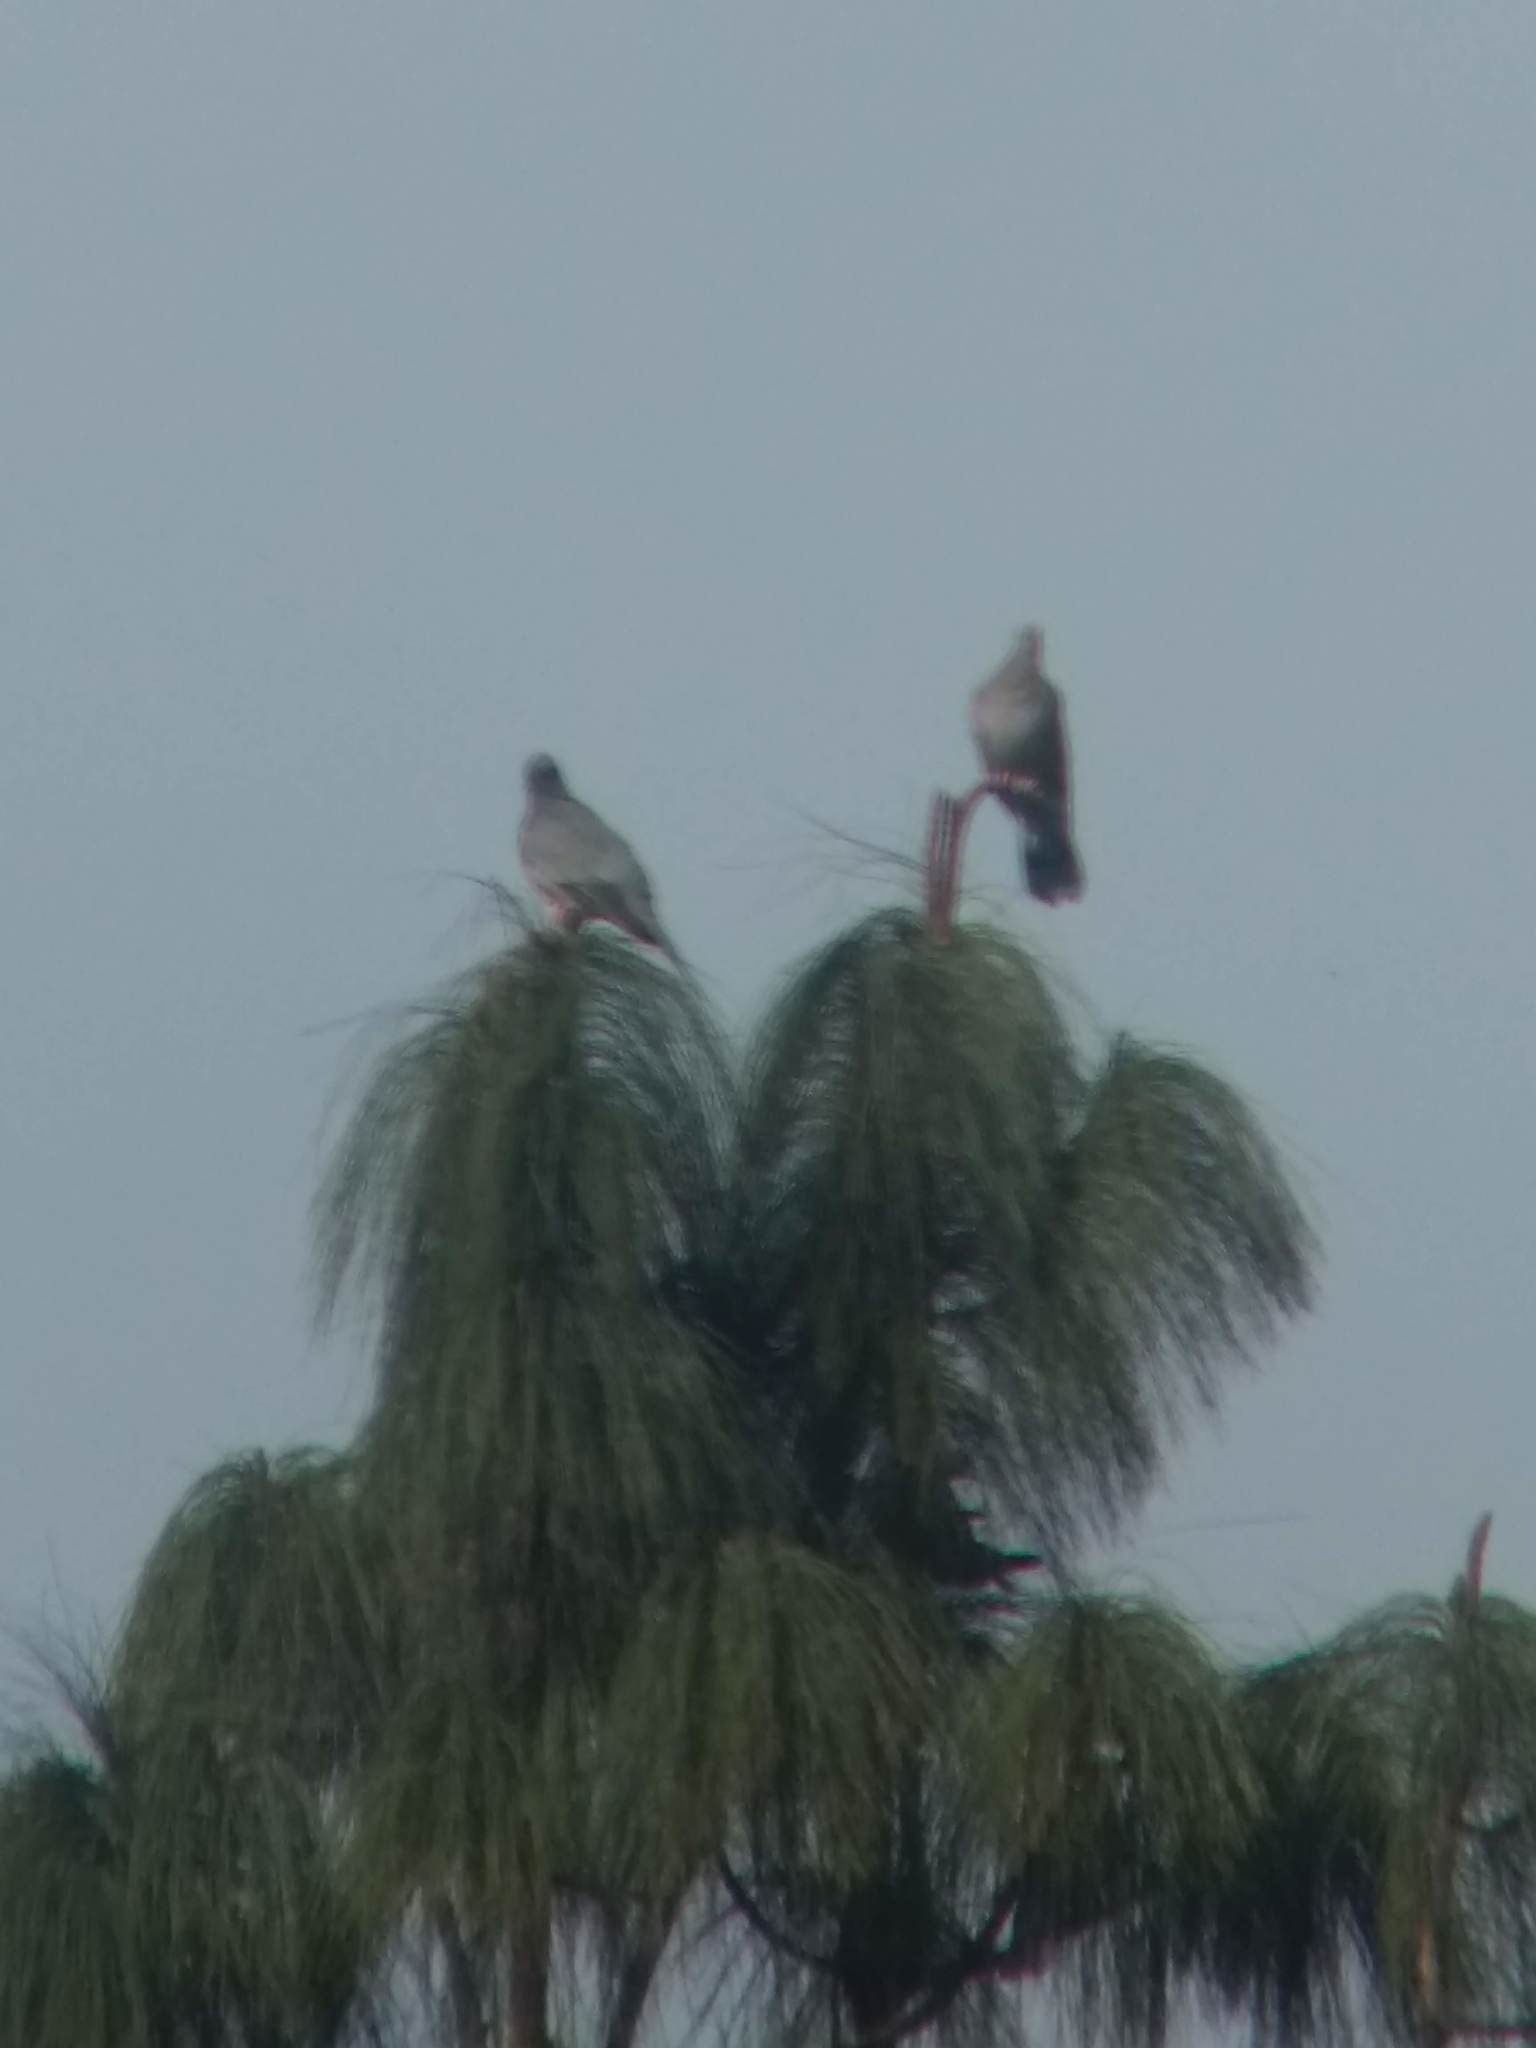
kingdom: Animalia
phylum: Chordata
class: Aves
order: Columbiformes
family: Columbidae
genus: Patagioenas
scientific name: Patagioenas fasciata
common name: Band-tailed pigeon
